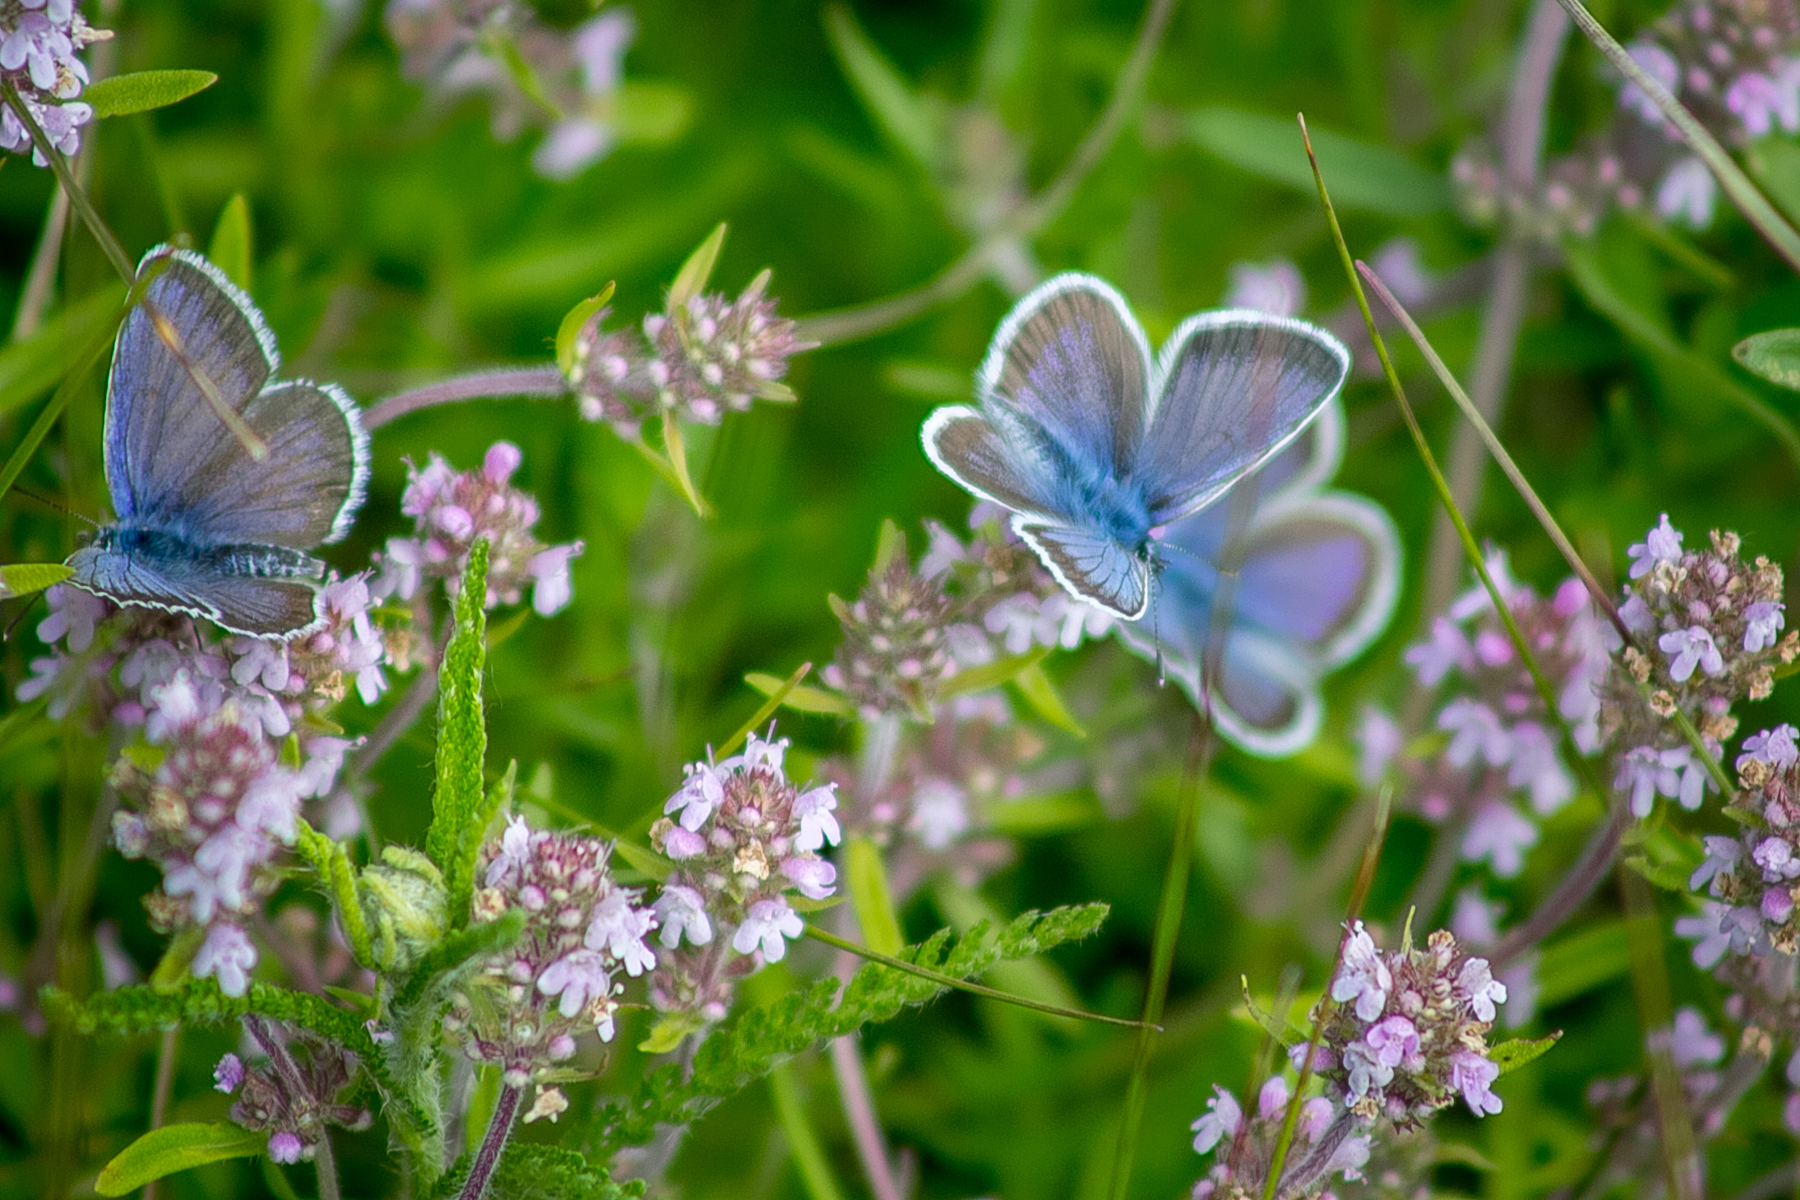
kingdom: Animalia
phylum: Arthropoda
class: Insecta
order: Lepidoptera
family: Lycaenidae
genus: Plebejus
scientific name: Plebejus argus
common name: Silver-studded blue
